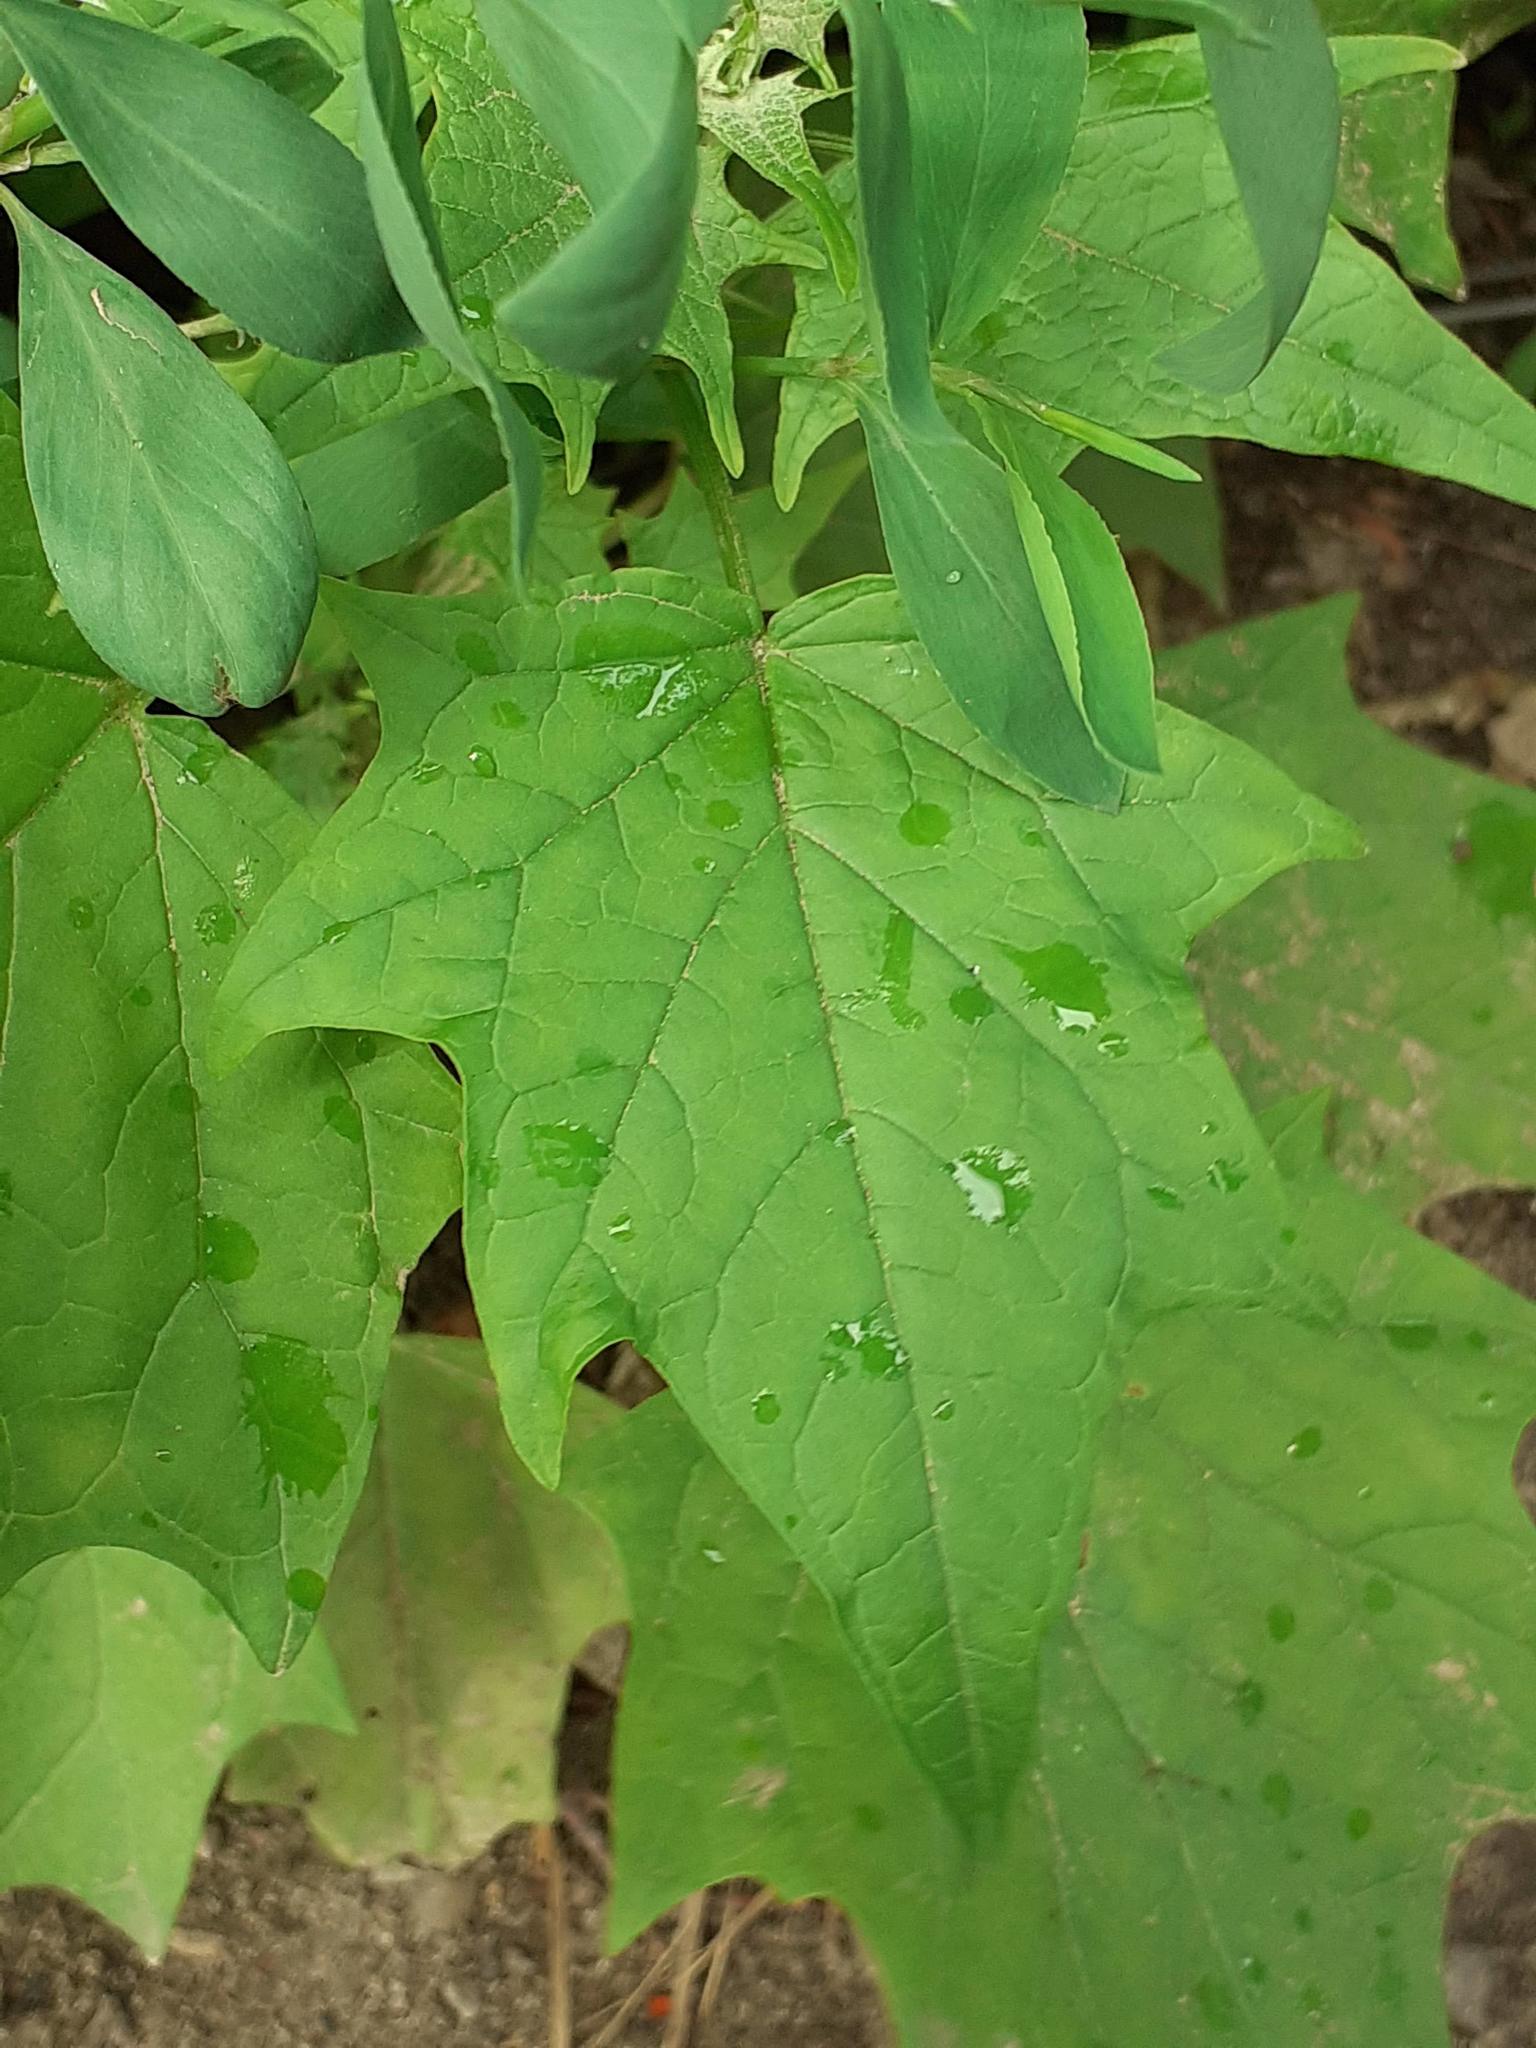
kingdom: Plantae
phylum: Tracheophyta
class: Magnoliopsida
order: Caryophyllales
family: Amaranthaceae
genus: Chenopodiastrum
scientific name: Chenopodiastrum hybridum
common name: Mapleleaf goosefoot
